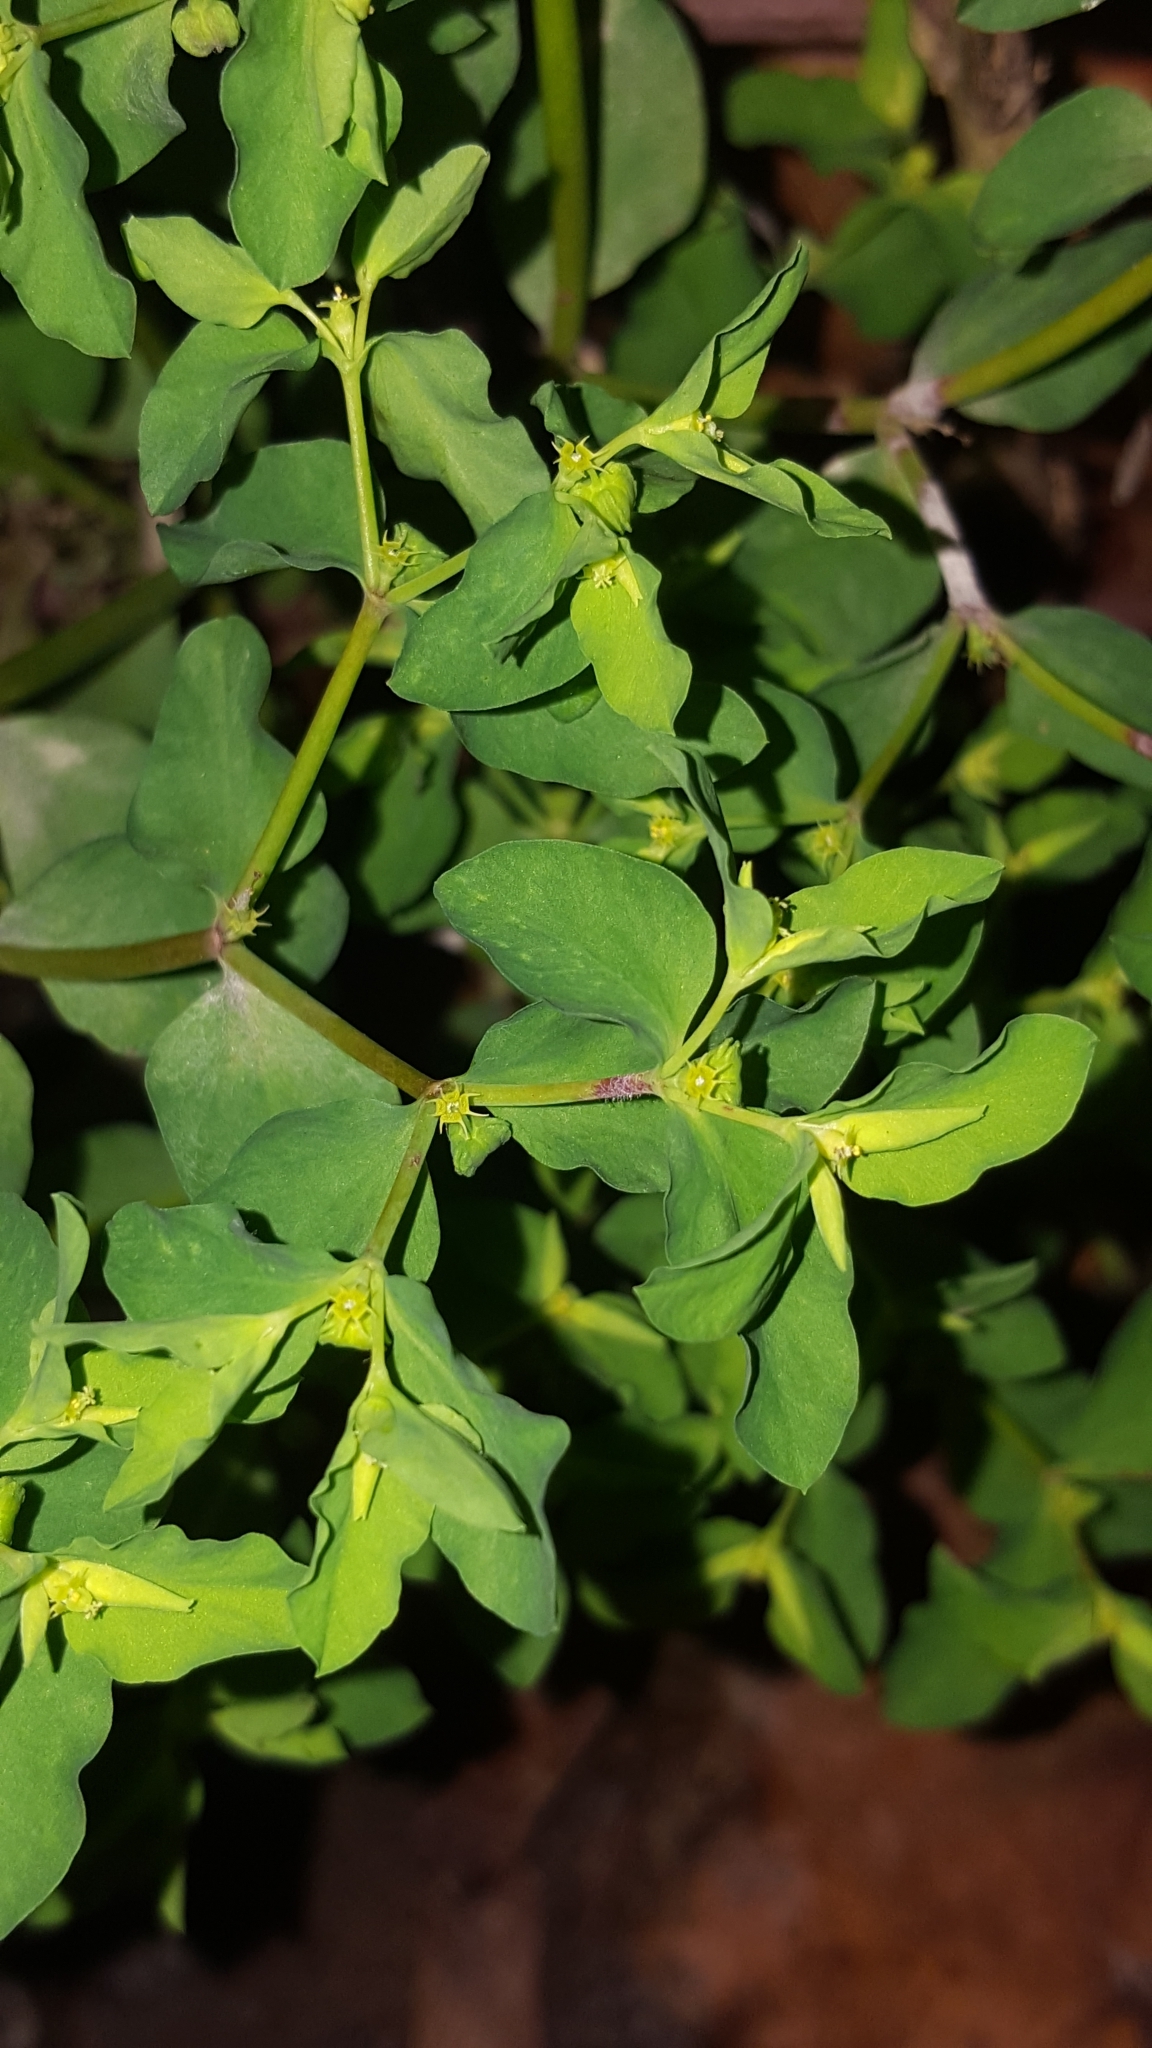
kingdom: Plantae
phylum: Tracheophyta
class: Magnoliopsida
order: Malpighiales
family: Euphorbiaceae
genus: Euphorbia
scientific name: Euphorbia peplus
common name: Petty spurge
